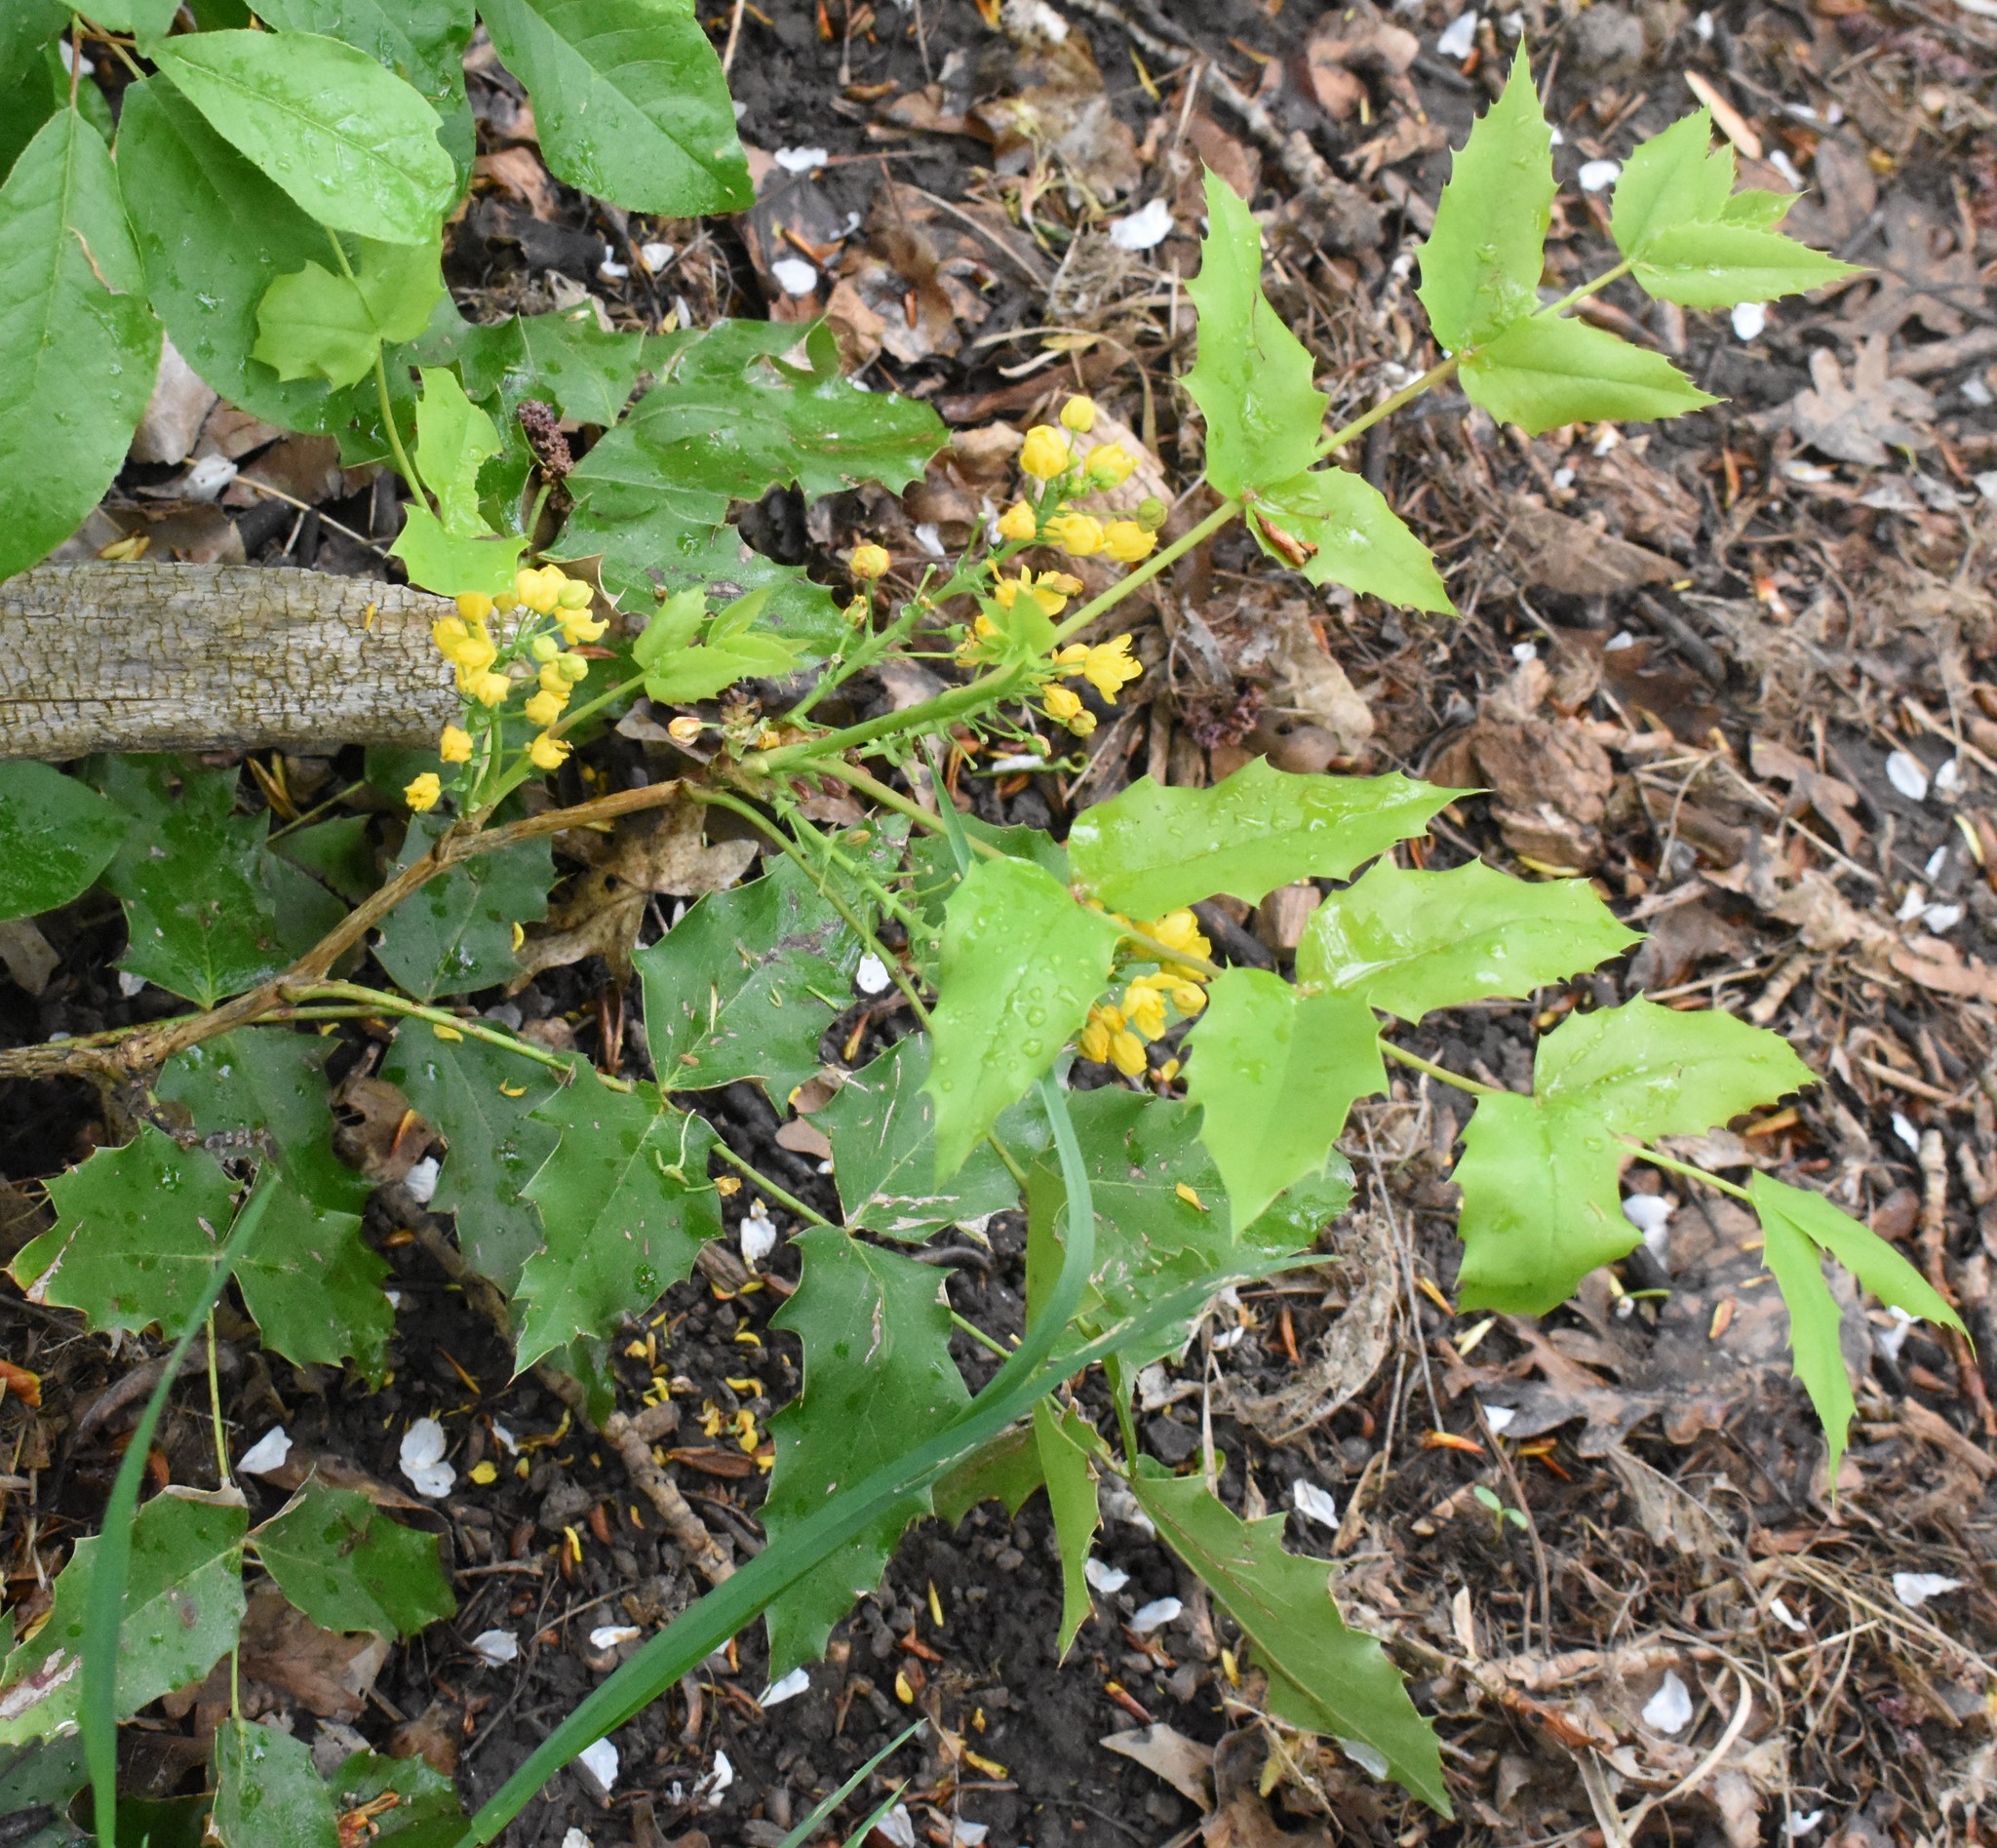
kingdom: Plantae
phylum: Tracheophyta
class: Magnoliopsida
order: Ranunculales
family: Berberidaceae
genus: Mahonia
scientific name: Mahonia aquifolium
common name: Oregon-grape
